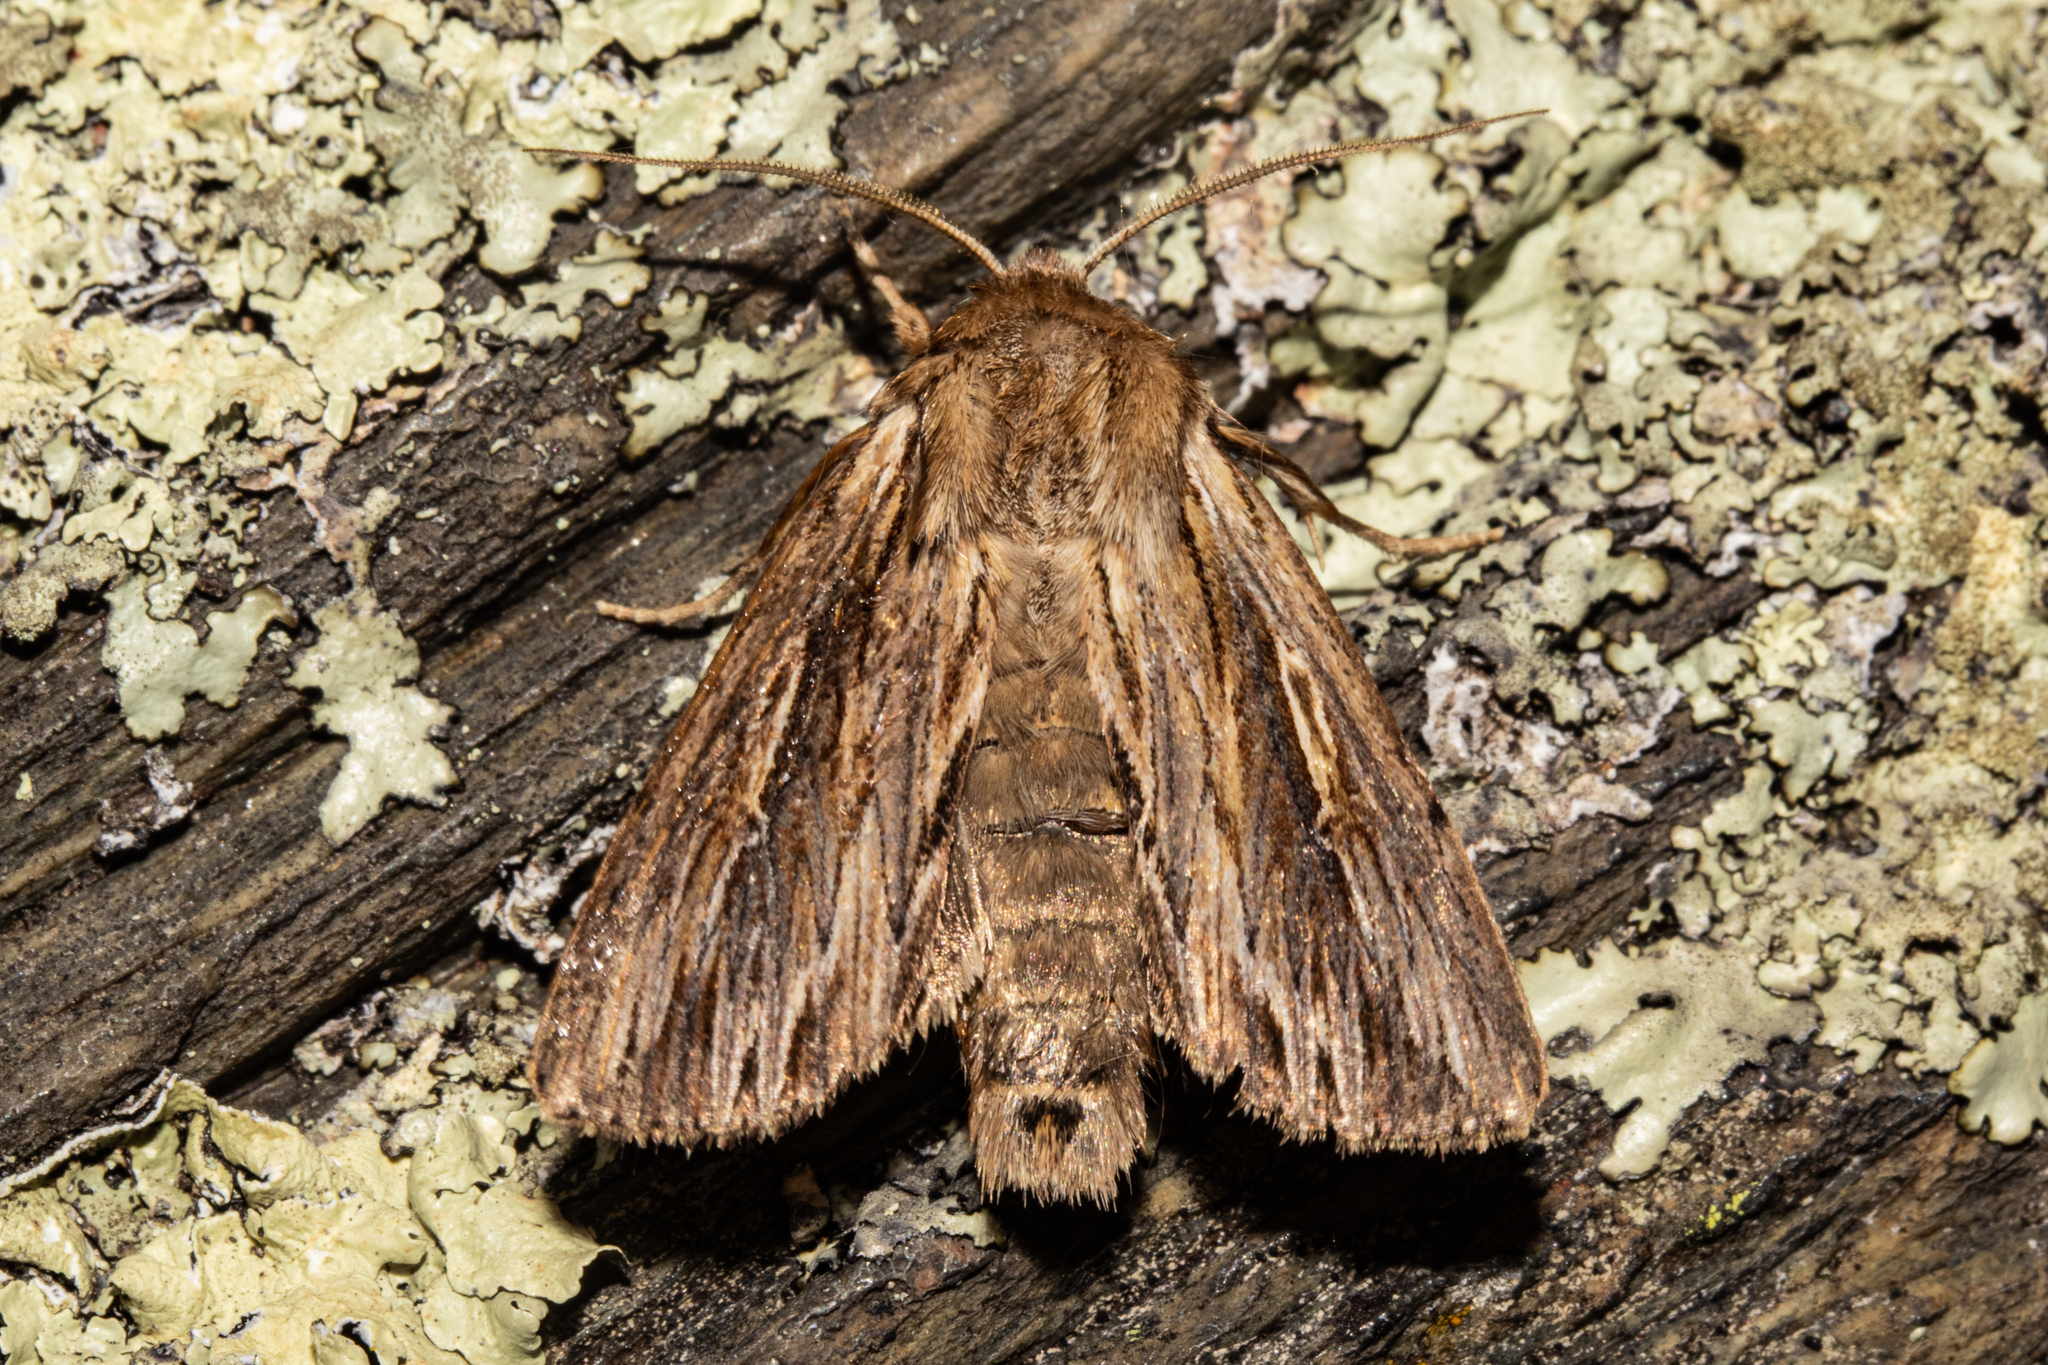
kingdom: Animalia
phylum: Arthropoda
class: Insecta
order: Lepidoptera
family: Noctuidae
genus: Persectania
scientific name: Persectania aversa
